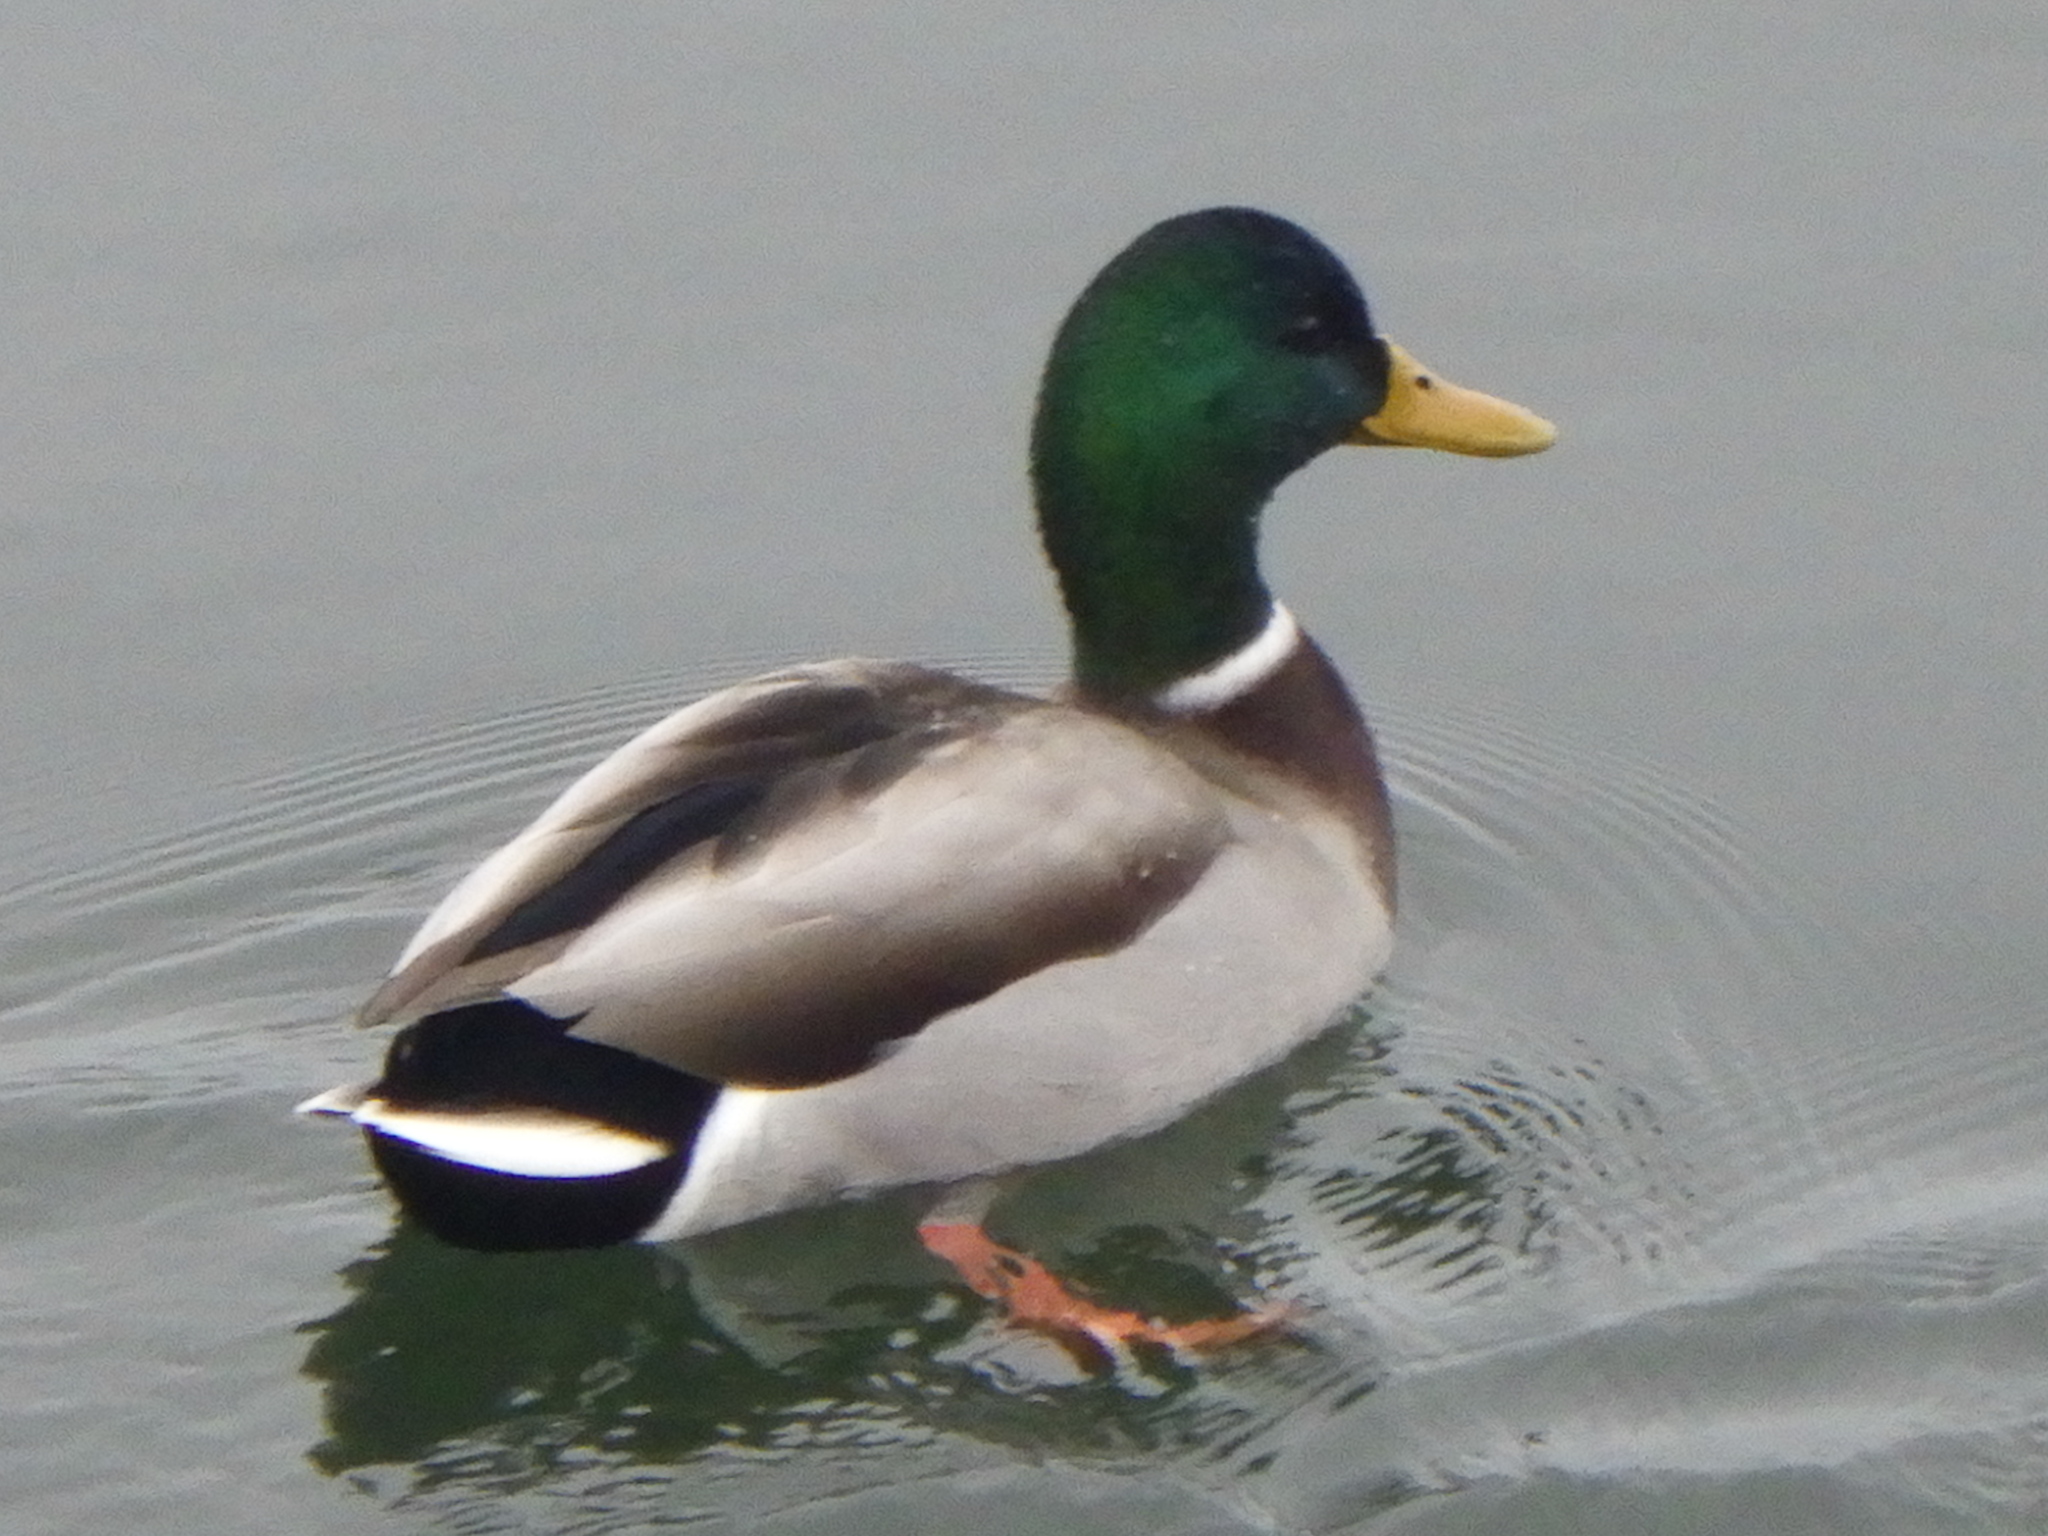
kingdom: Animalia
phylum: Chordata
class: Aves
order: Anseriformes
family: Anatidae
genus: Anas
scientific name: Anas platyrhynchos
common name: Mallard
